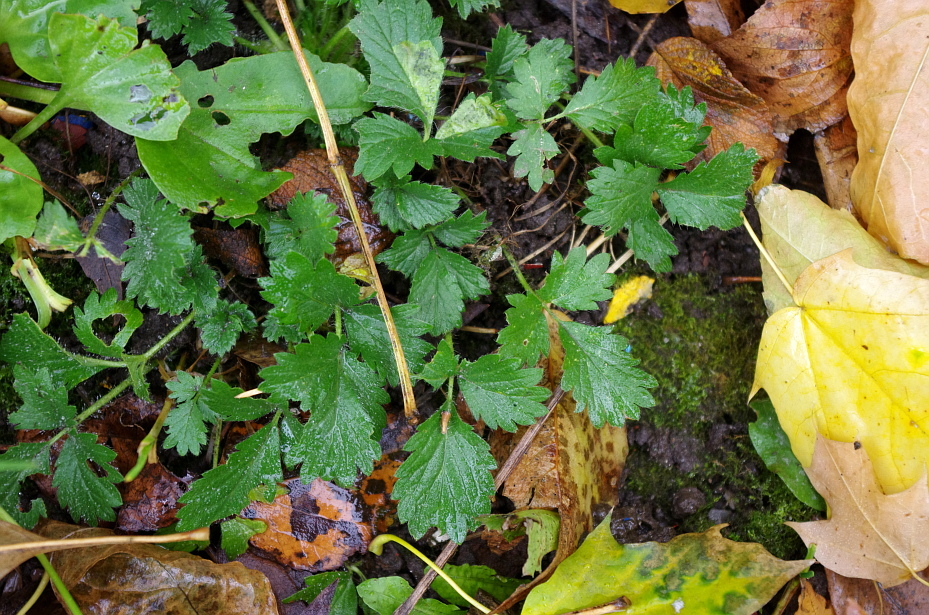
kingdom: Plantae
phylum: Tracheophyta
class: Magnoliopsida
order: Rosales
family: Rosaceae
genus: Potentilla
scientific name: Potentilla norvegica
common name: Ternate-leaved cinquefoil
